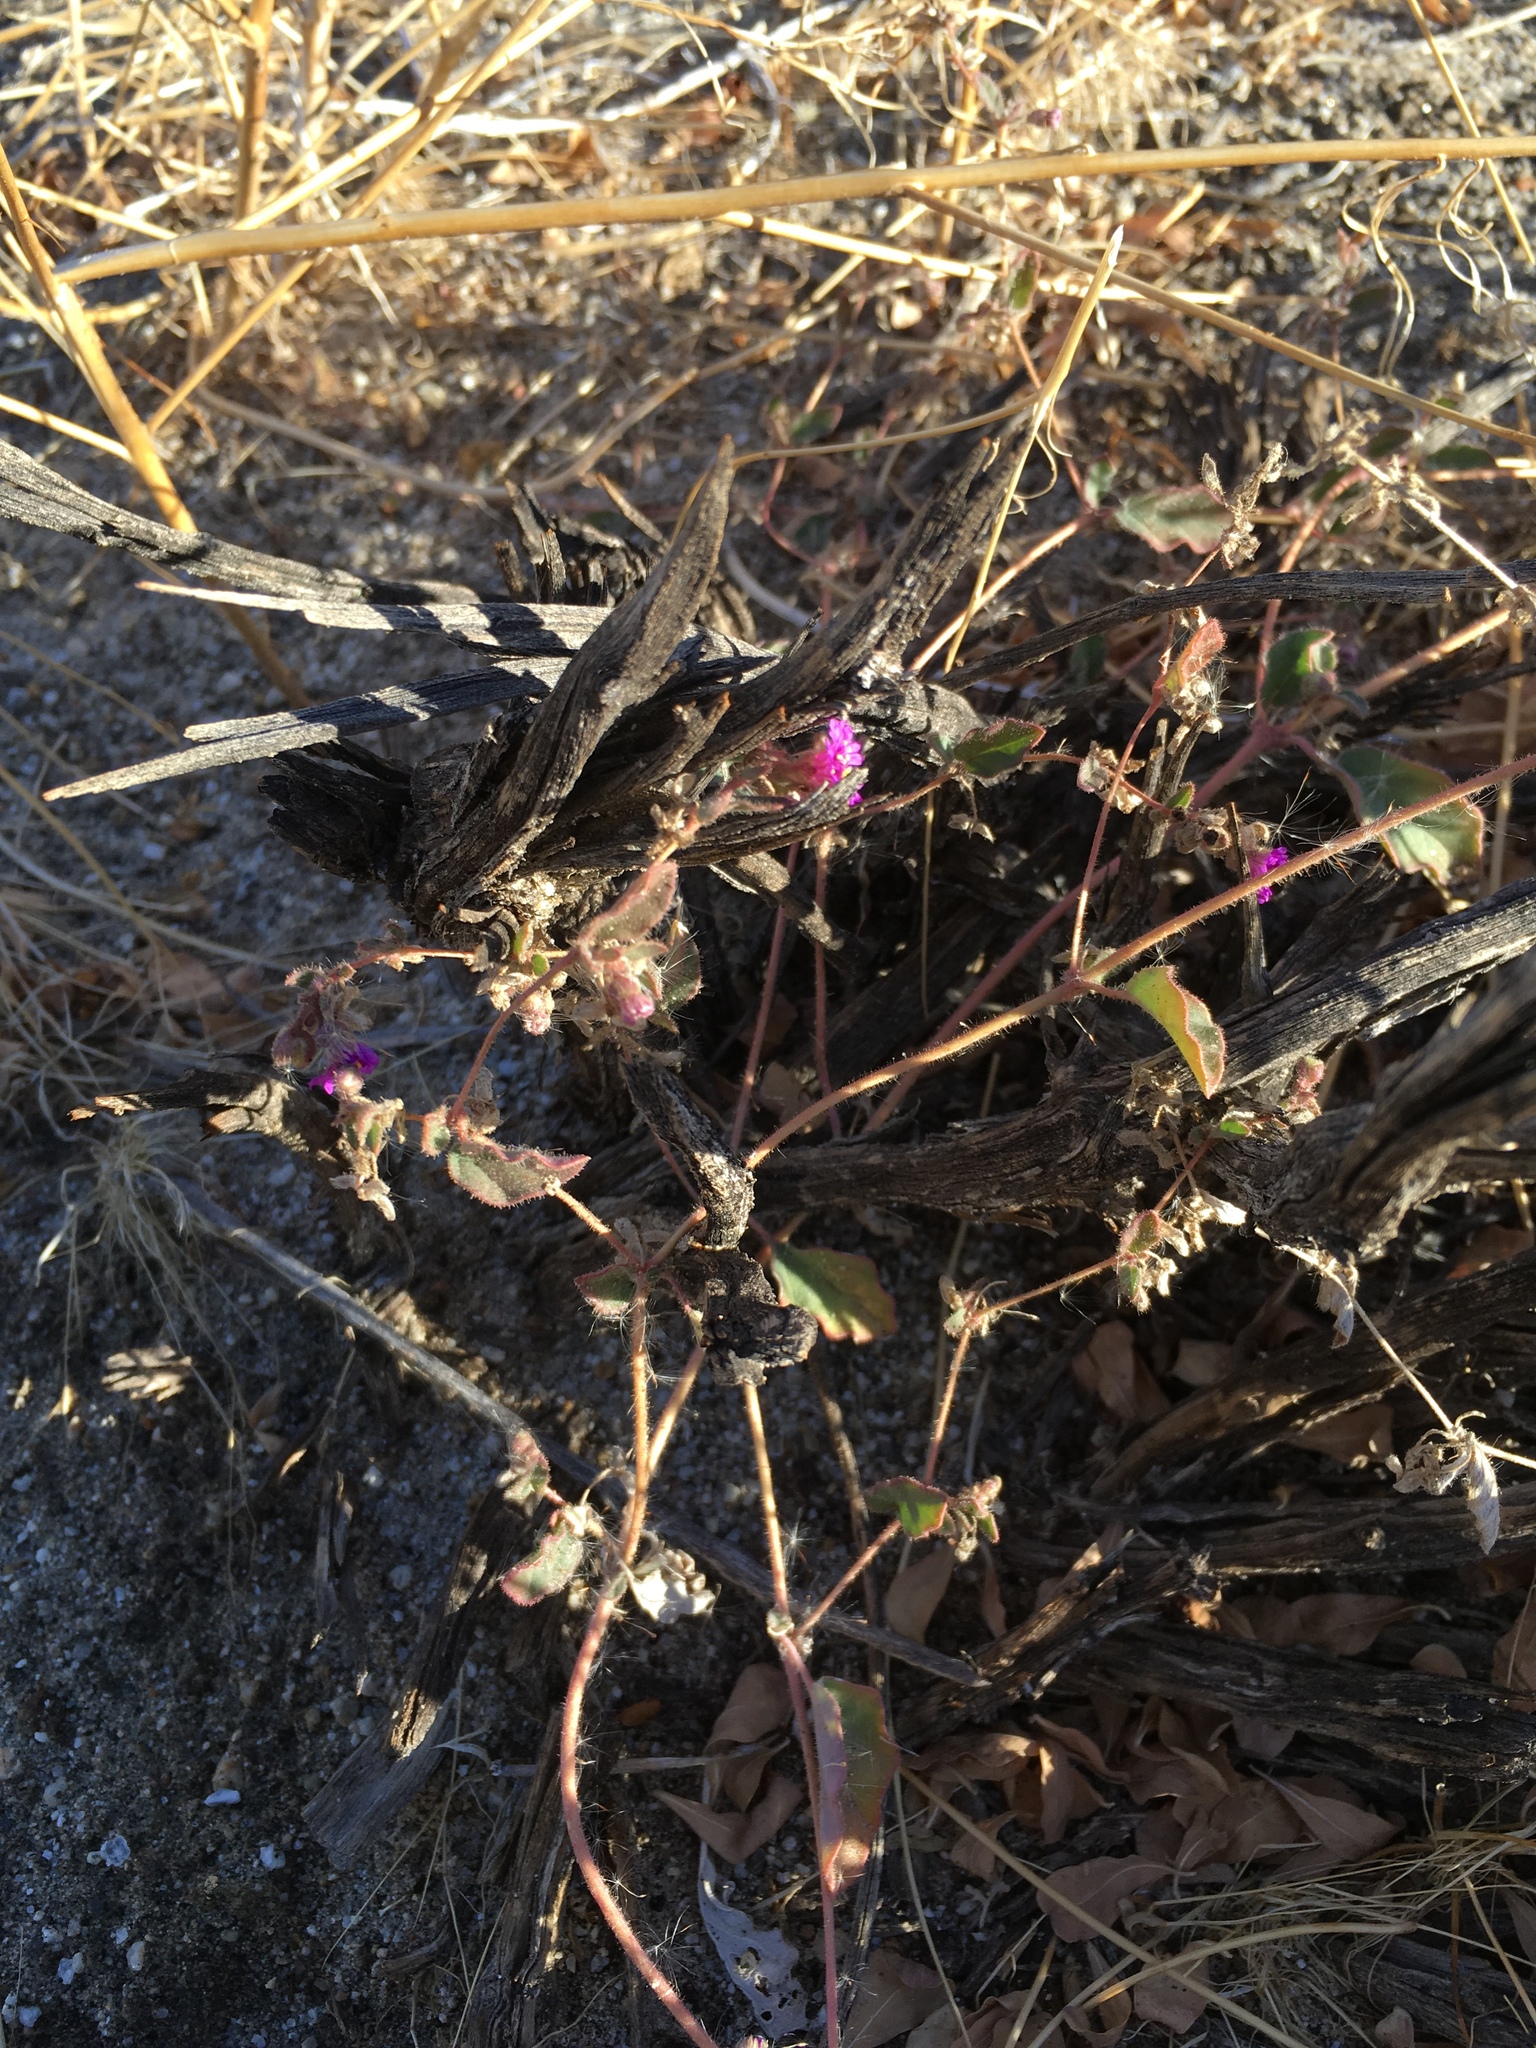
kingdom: Plantae
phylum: Tracheophyta
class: Magnoliopsida
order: Caryophyllales
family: Nyctaginaceae
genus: Allionia
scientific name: Allionia incarnata
